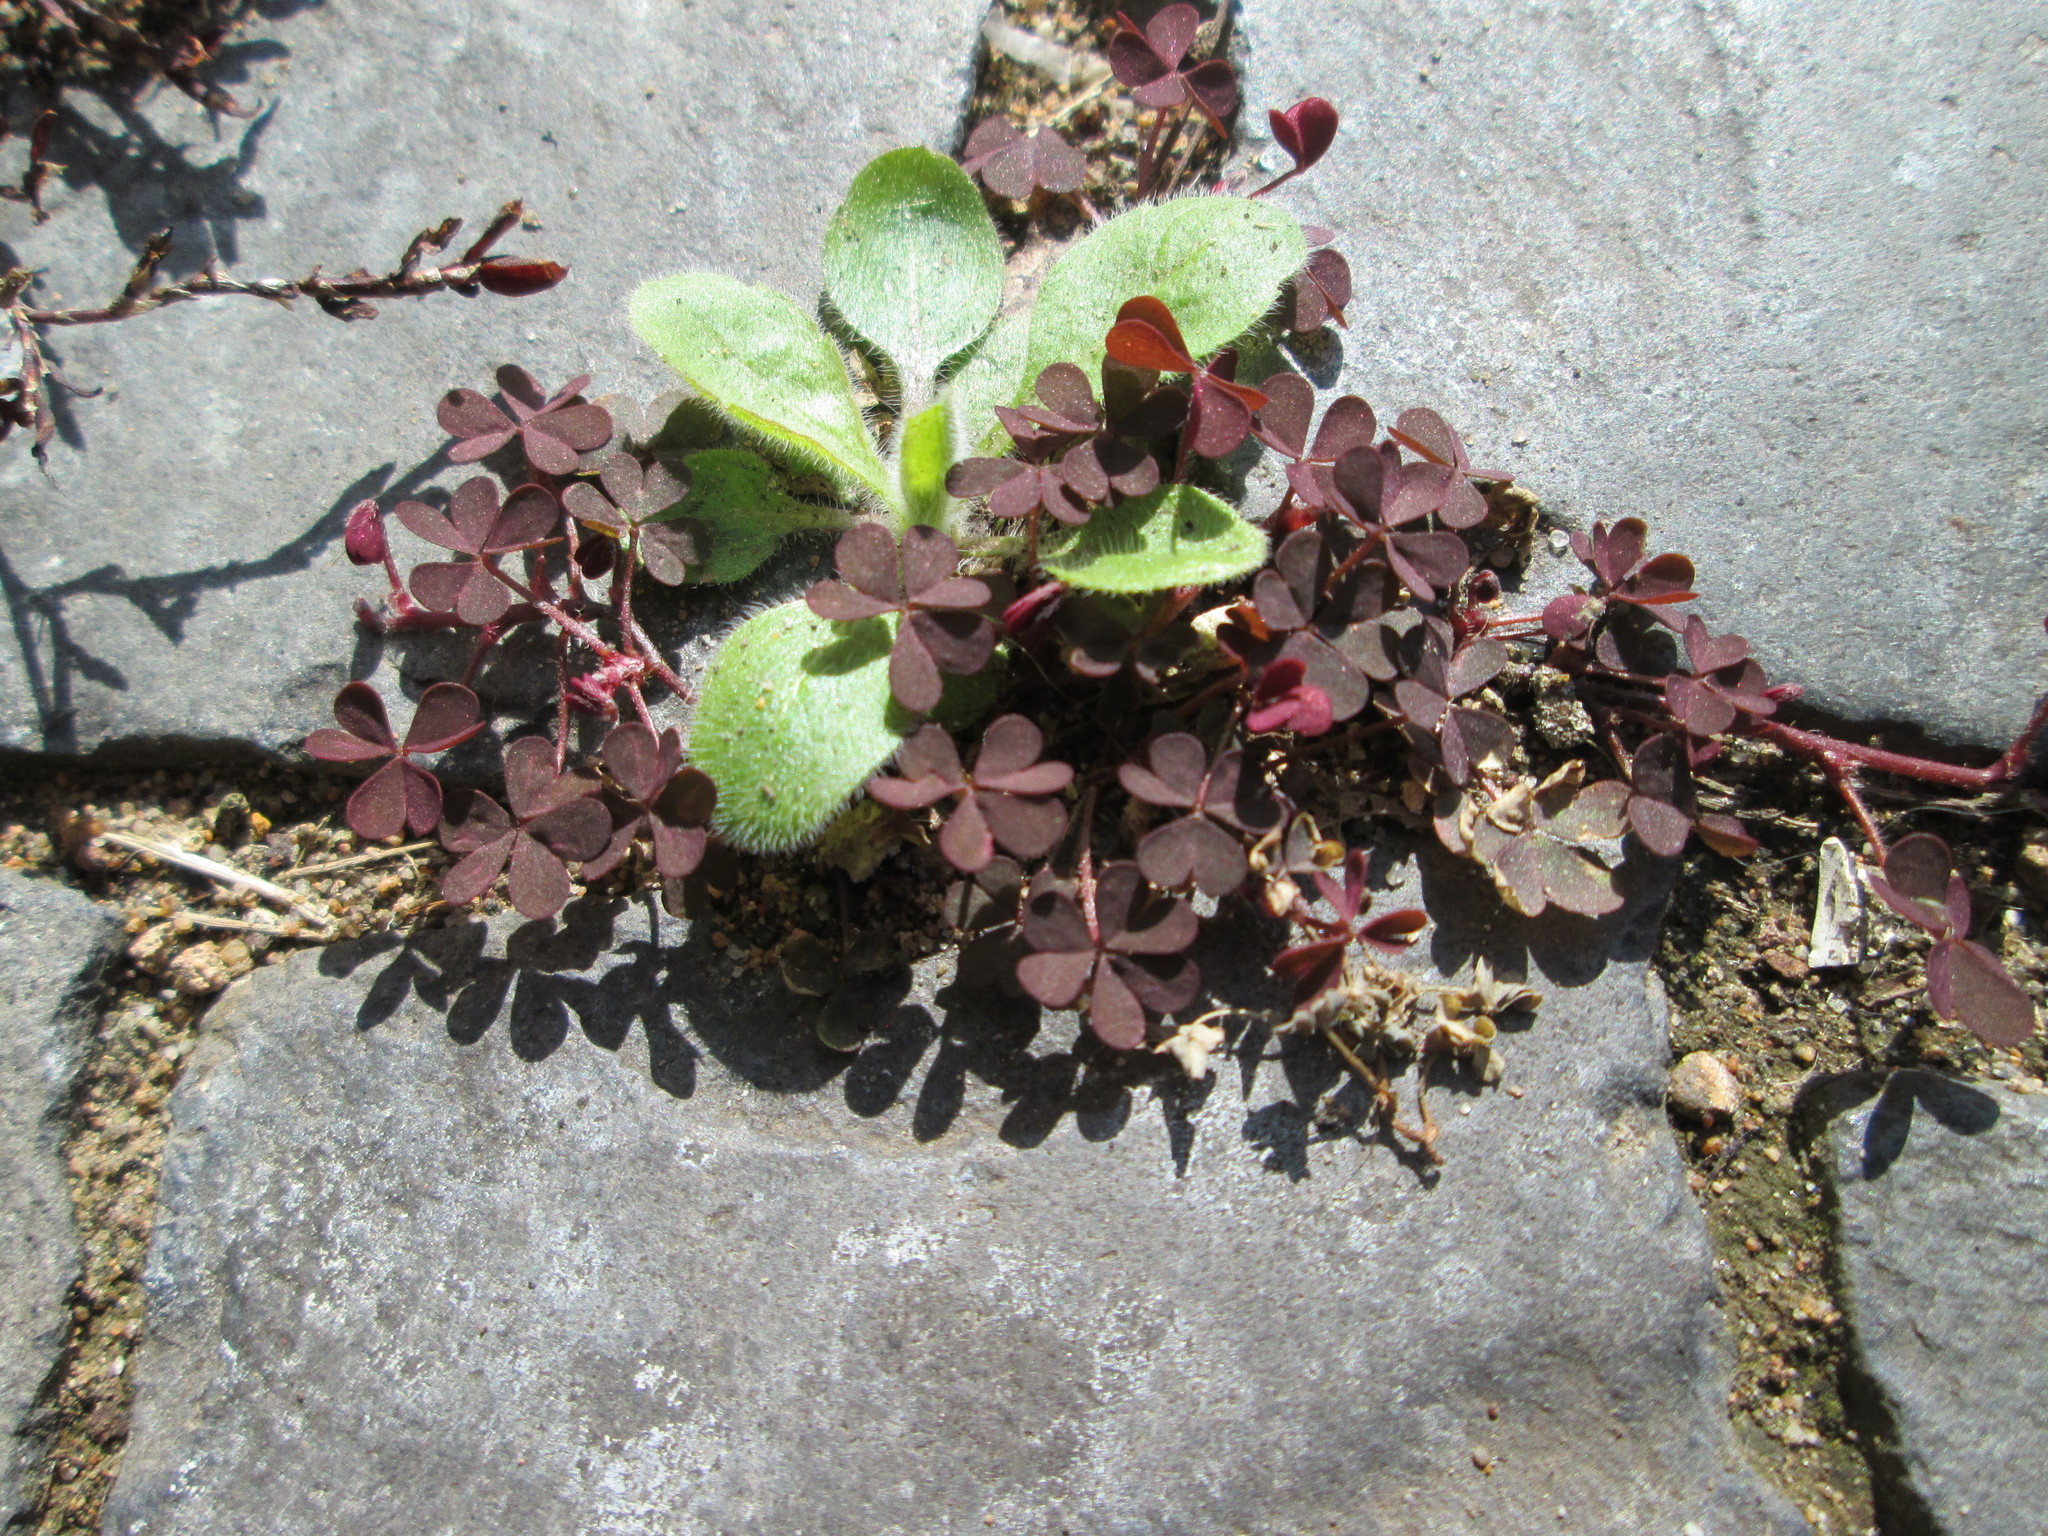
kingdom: Plantae
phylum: Tracheophyta
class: Magnoliopsida
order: Oxalidales
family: Oxalidaceae
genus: Oxalis
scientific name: Oxalis corniculata
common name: Procumbent yellow-sorrel
